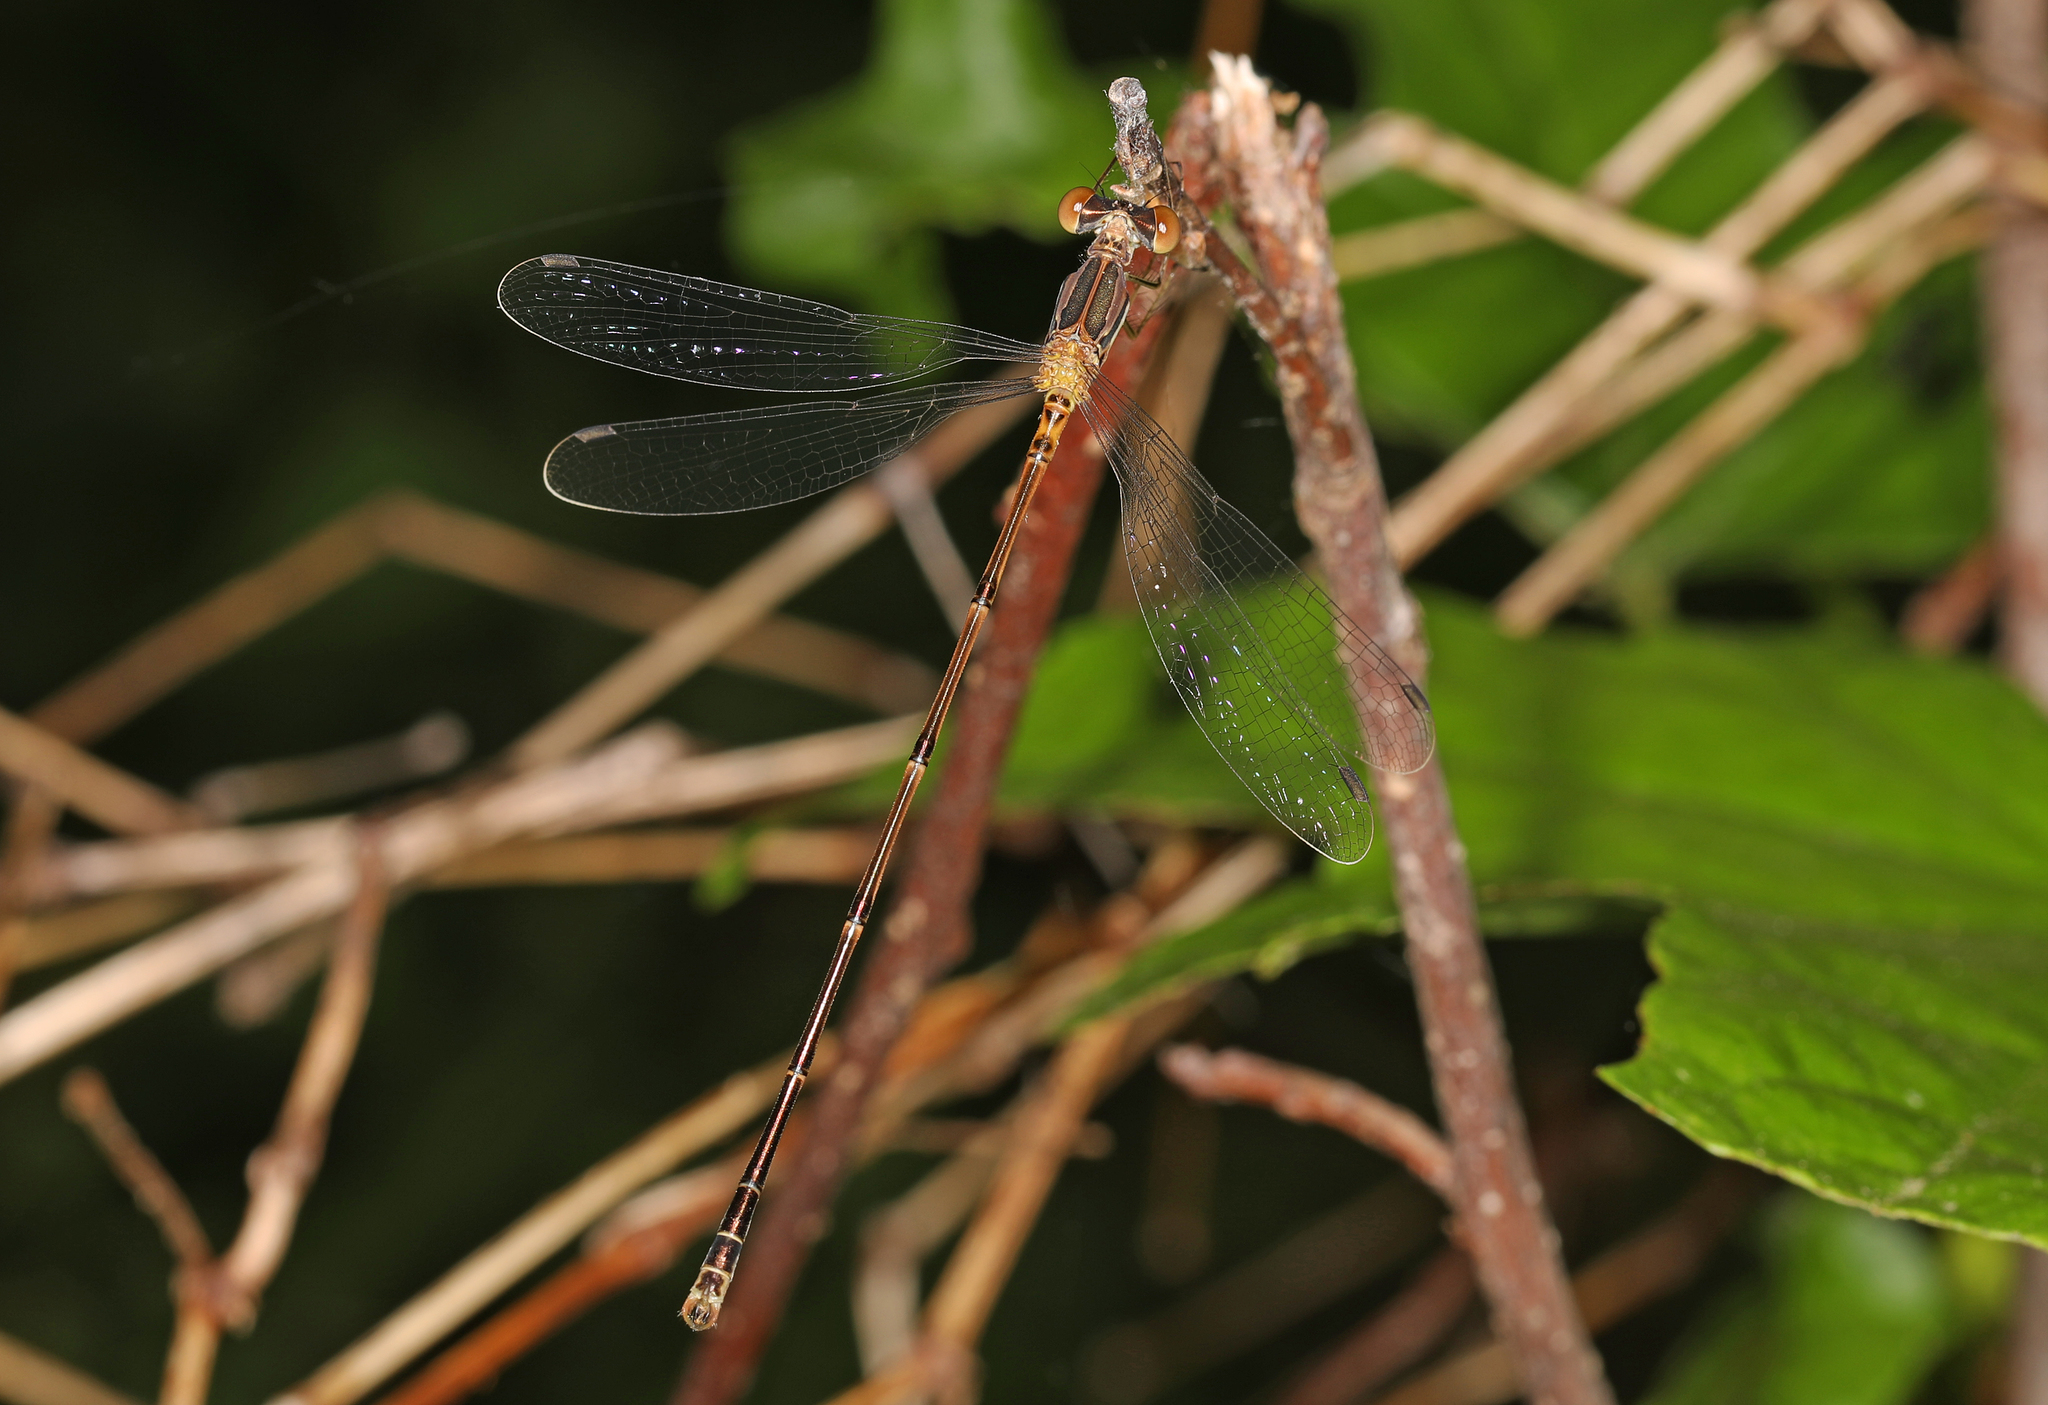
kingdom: Animalia
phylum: Arthropoda
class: Insecta
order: Odonata
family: Lestidae
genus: Lestes
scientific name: Lestes rectangularis
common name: Slender spreadwing
